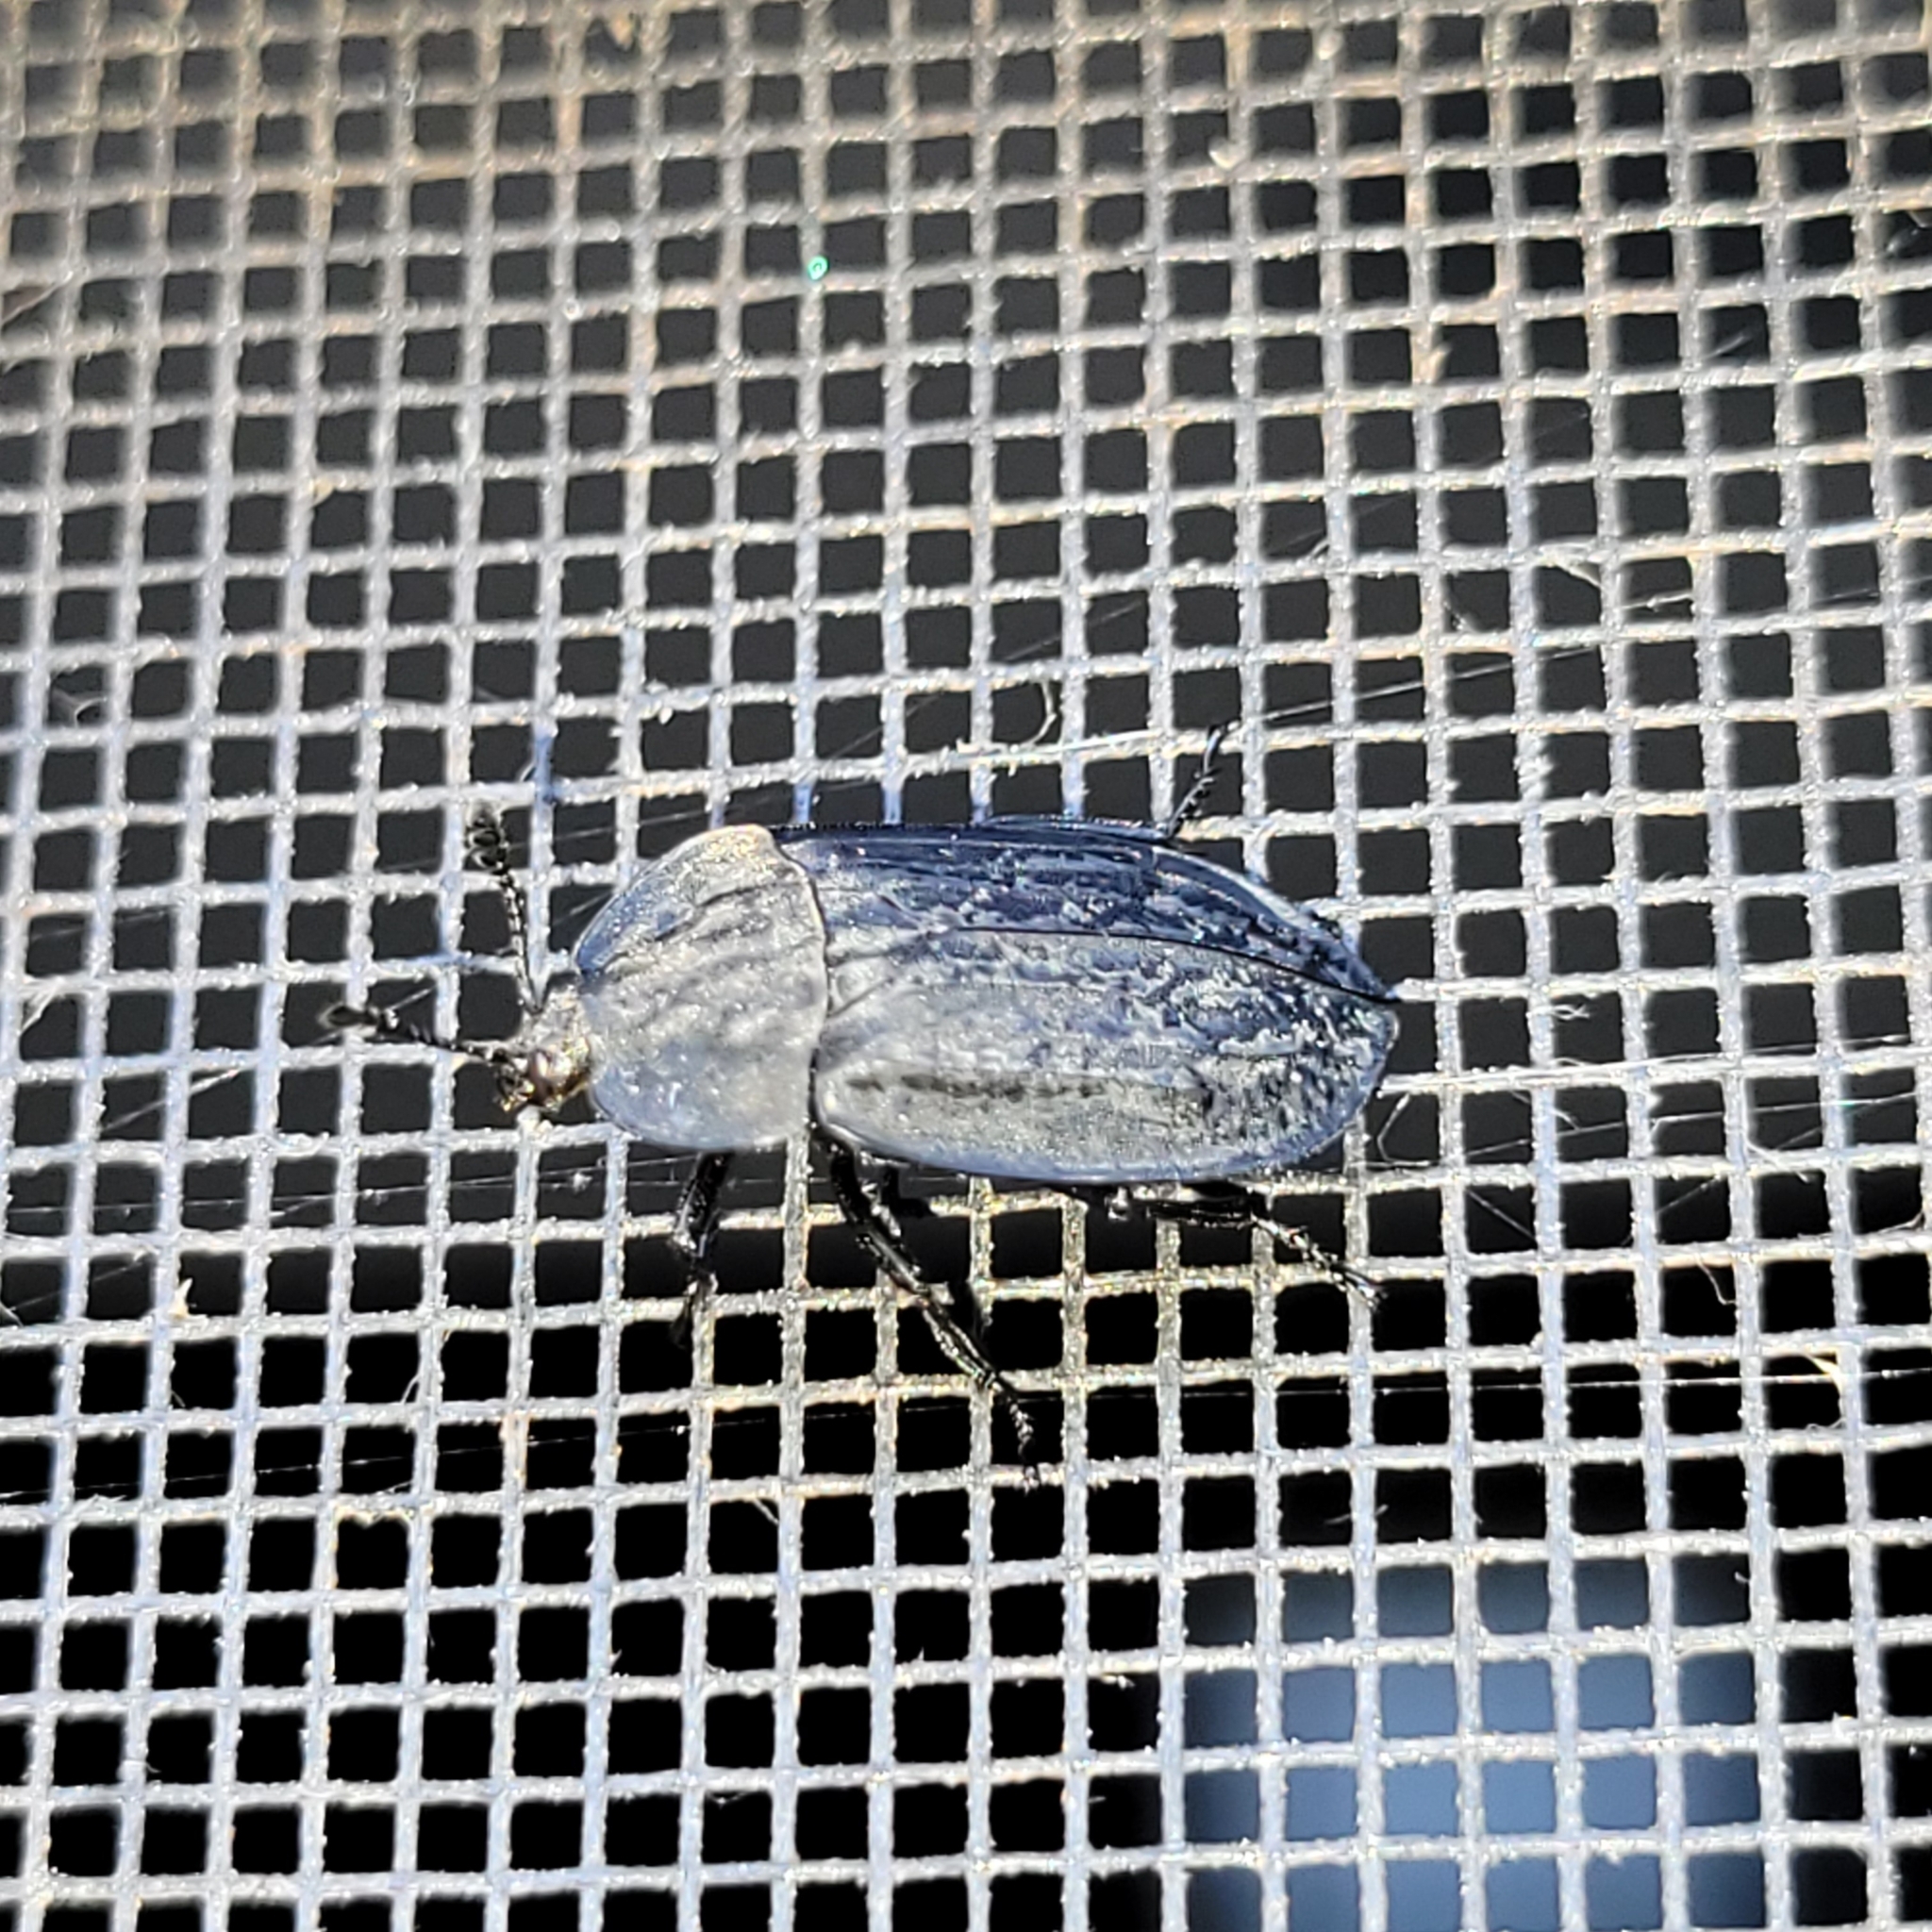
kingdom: Animalia
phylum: Arthropoda
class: Insecta
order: Coleoptera
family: Staphylinidae
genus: Oiceoptoma
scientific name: Oiceoptoma inaequale
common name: Ridged carrion beetle
